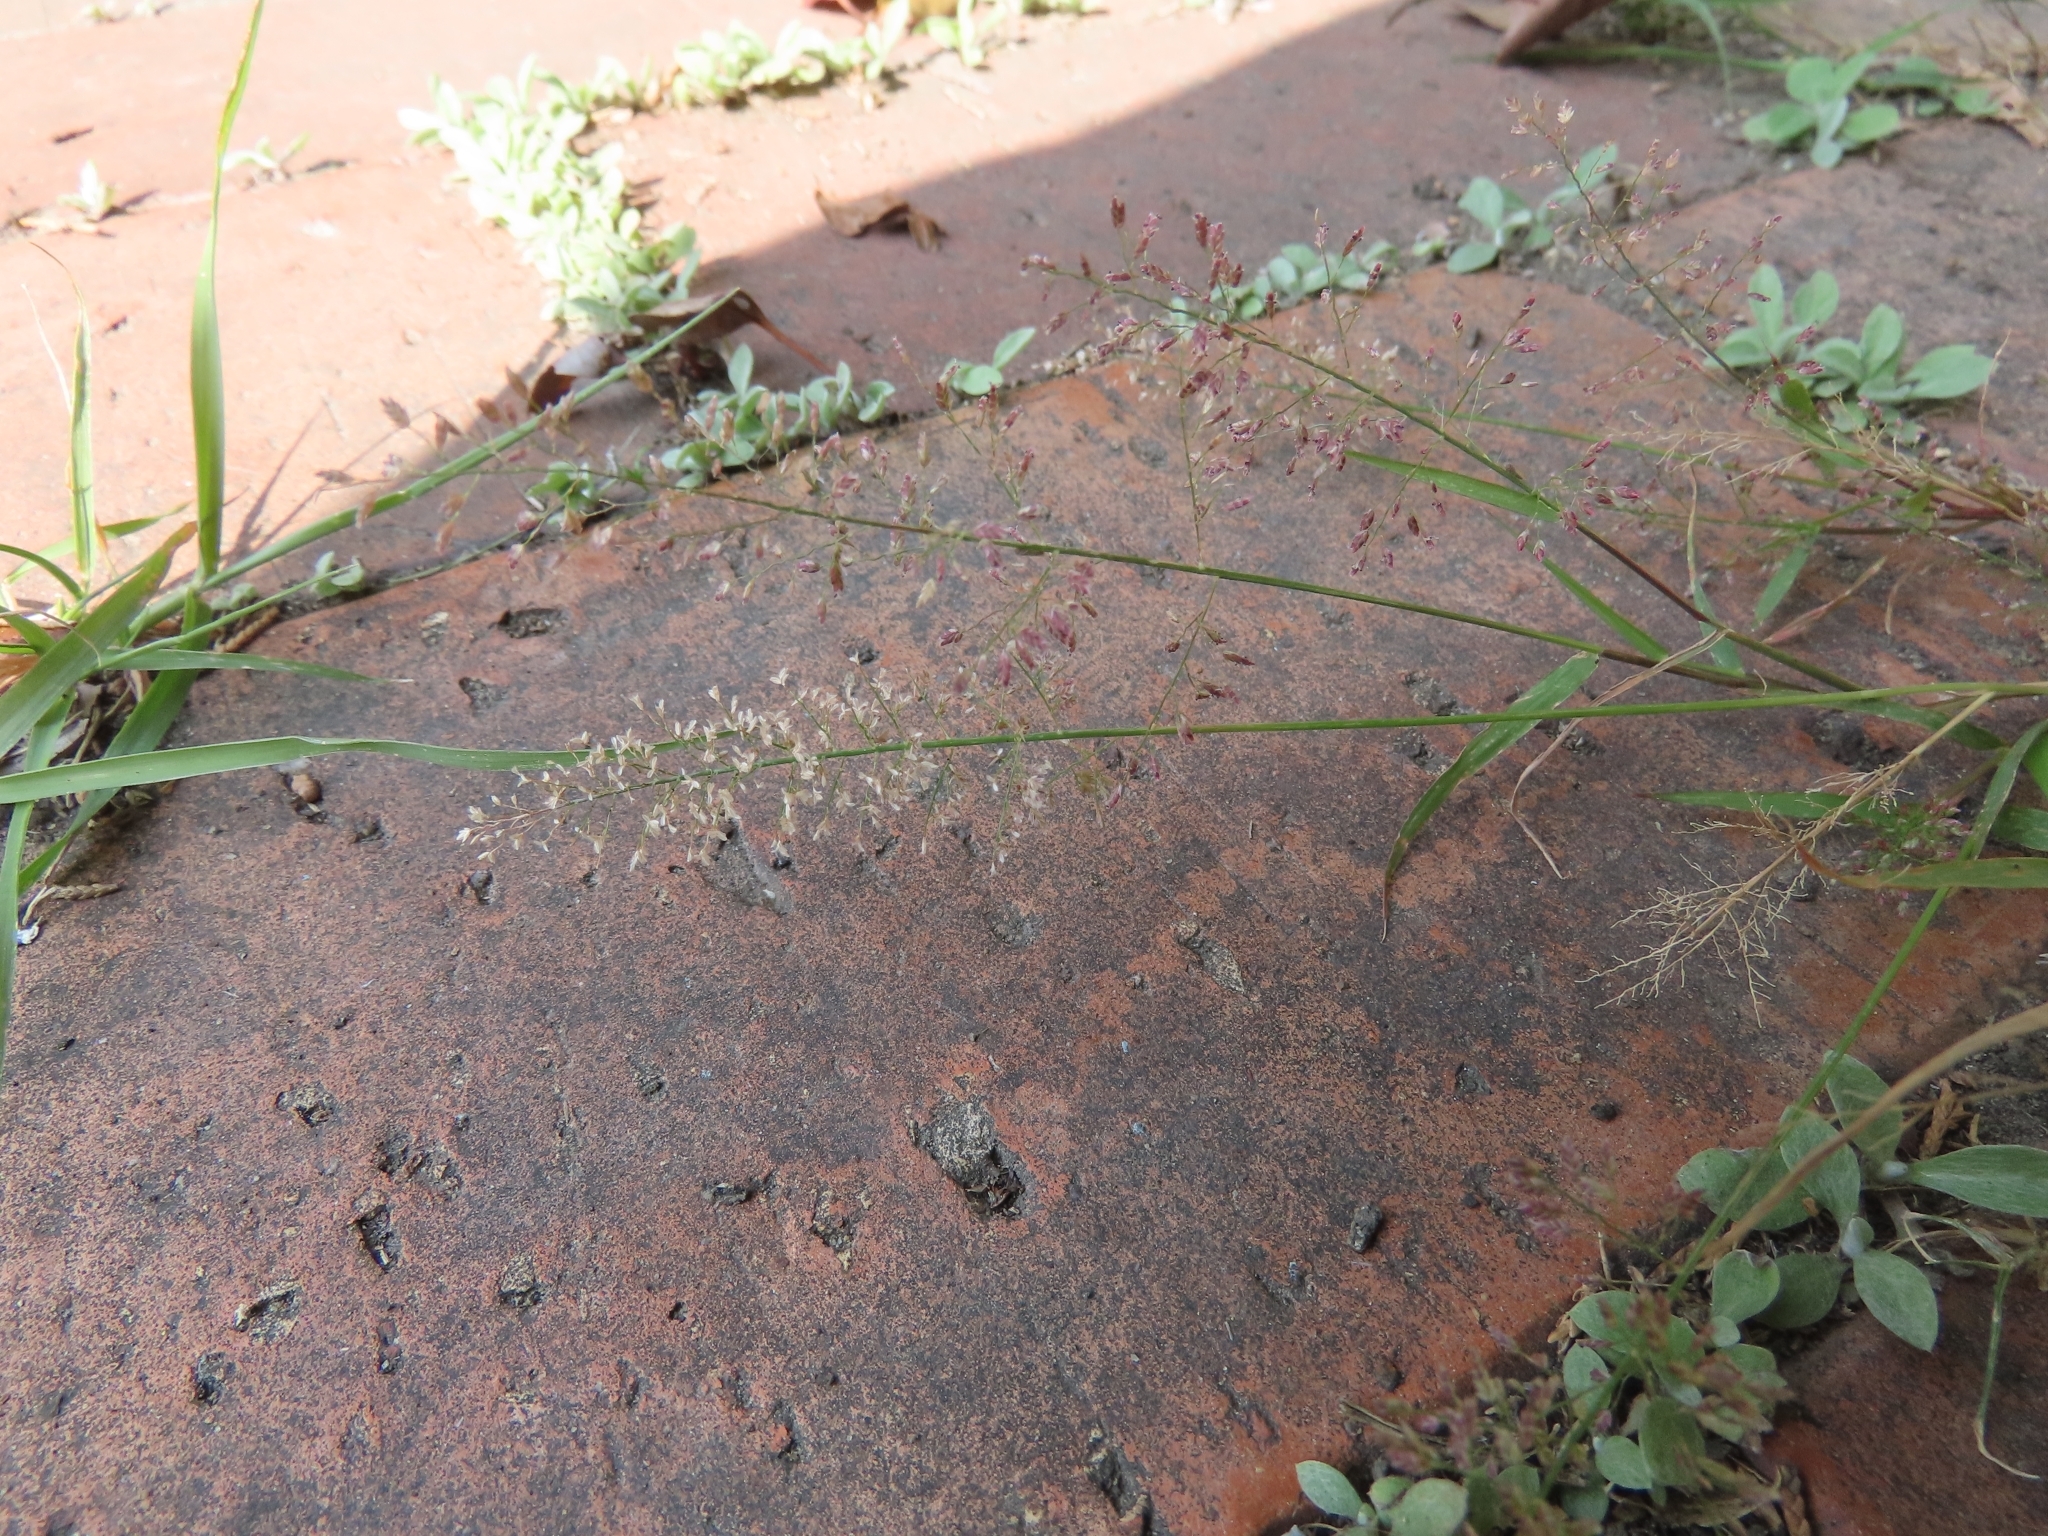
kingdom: Plantae
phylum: Tracheophyta
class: Liliopsida
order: Poales
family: Poaceae
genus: Eragrostis
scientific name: Eragrostis tenella
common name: Japanese lovegrass
